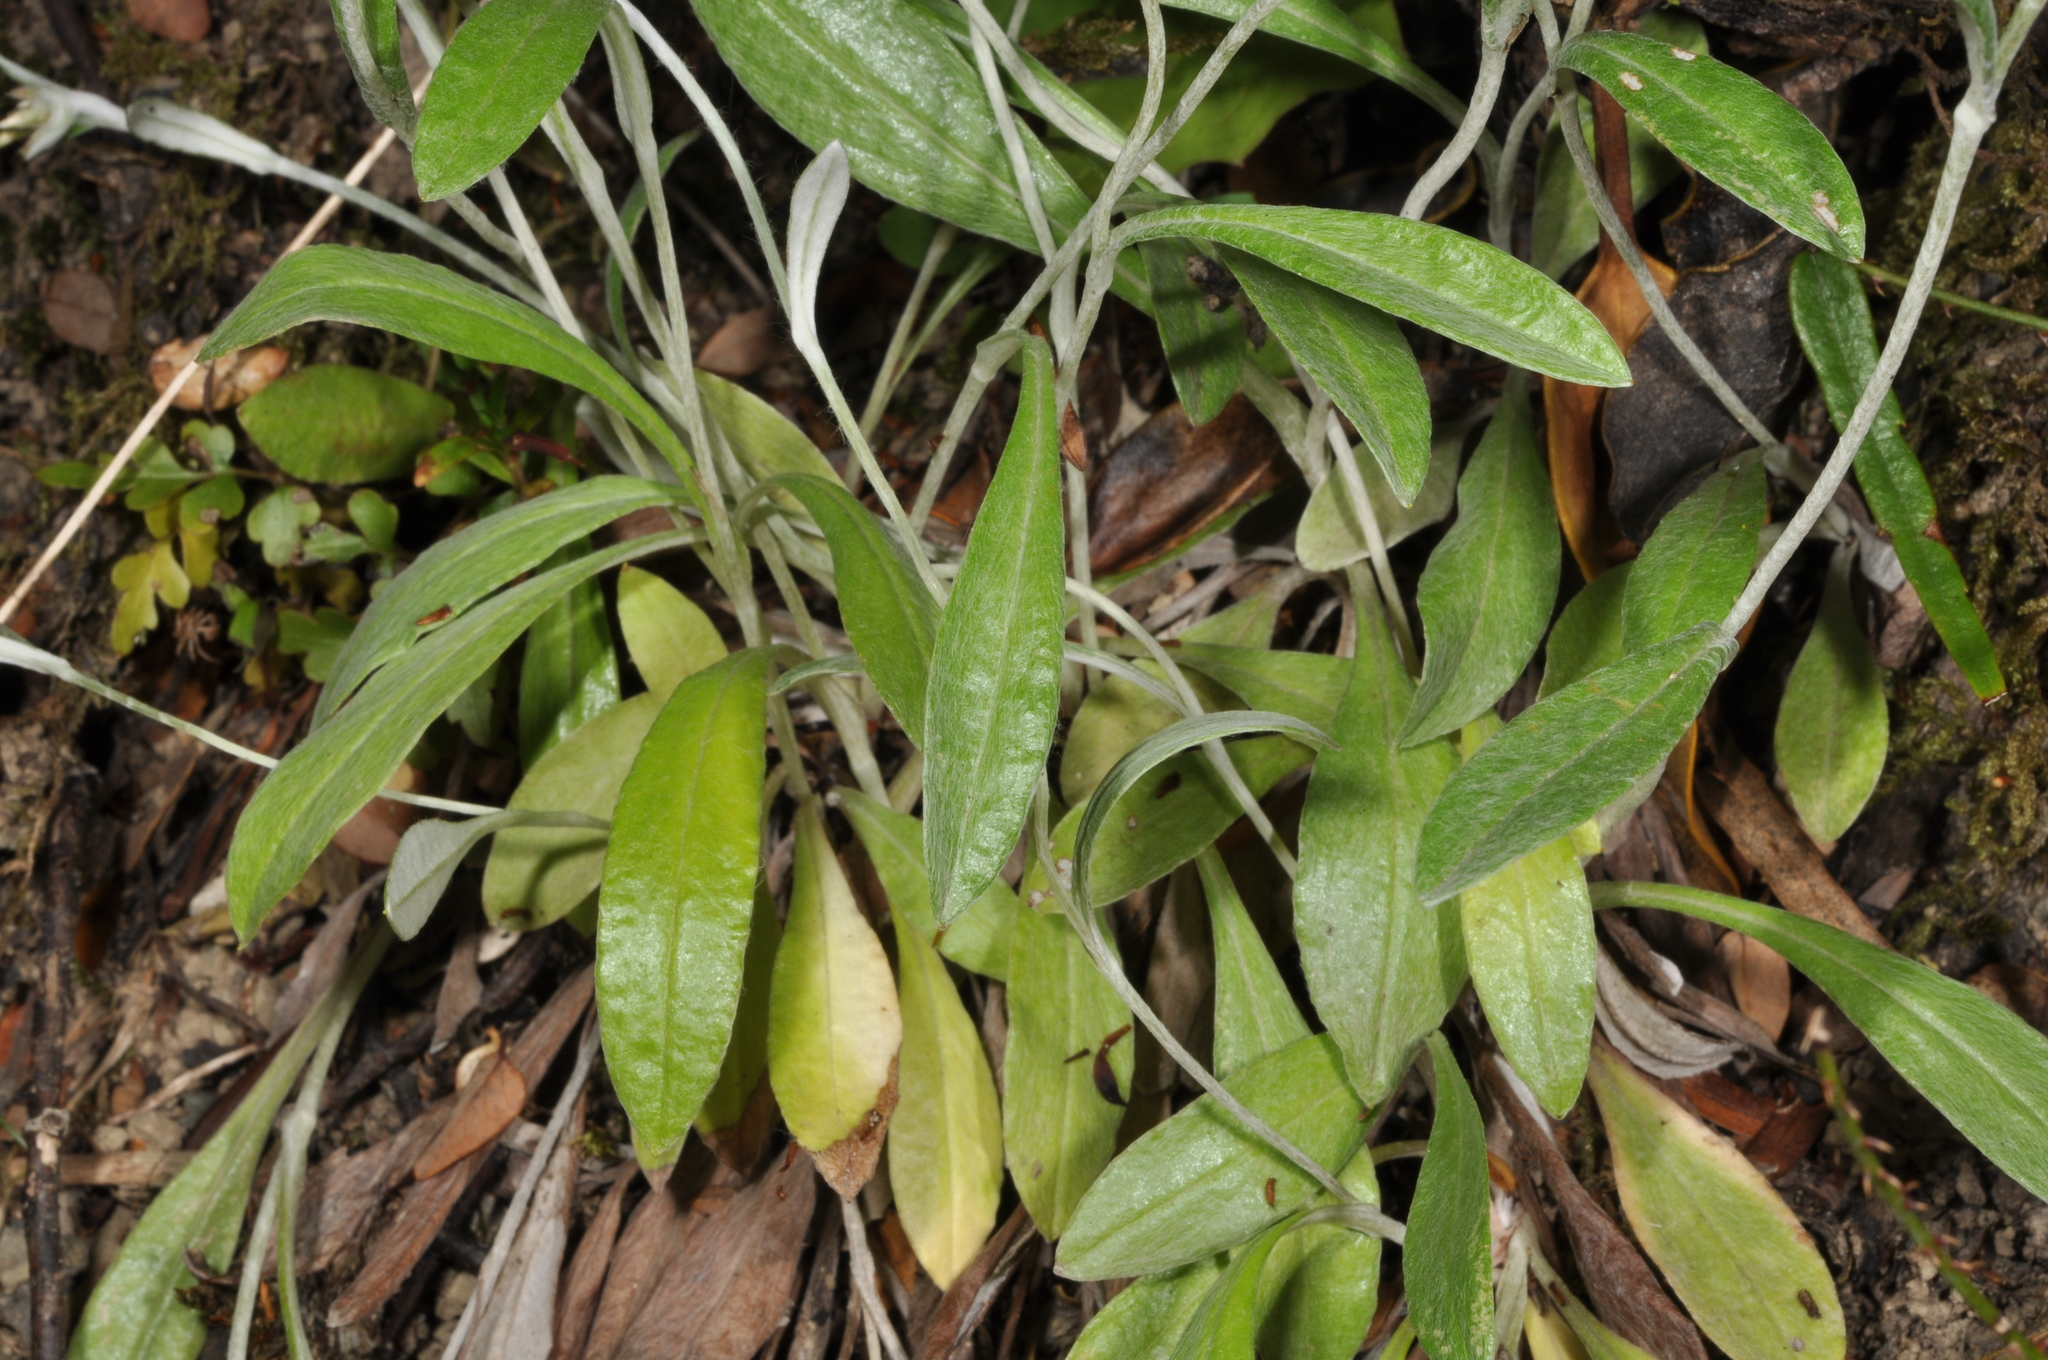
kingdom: Plantae
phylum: Tracheophyta
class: Magnoliopsida
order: Asterales
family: Asteraceae
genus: Euchiton
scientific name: Euchiton audax
